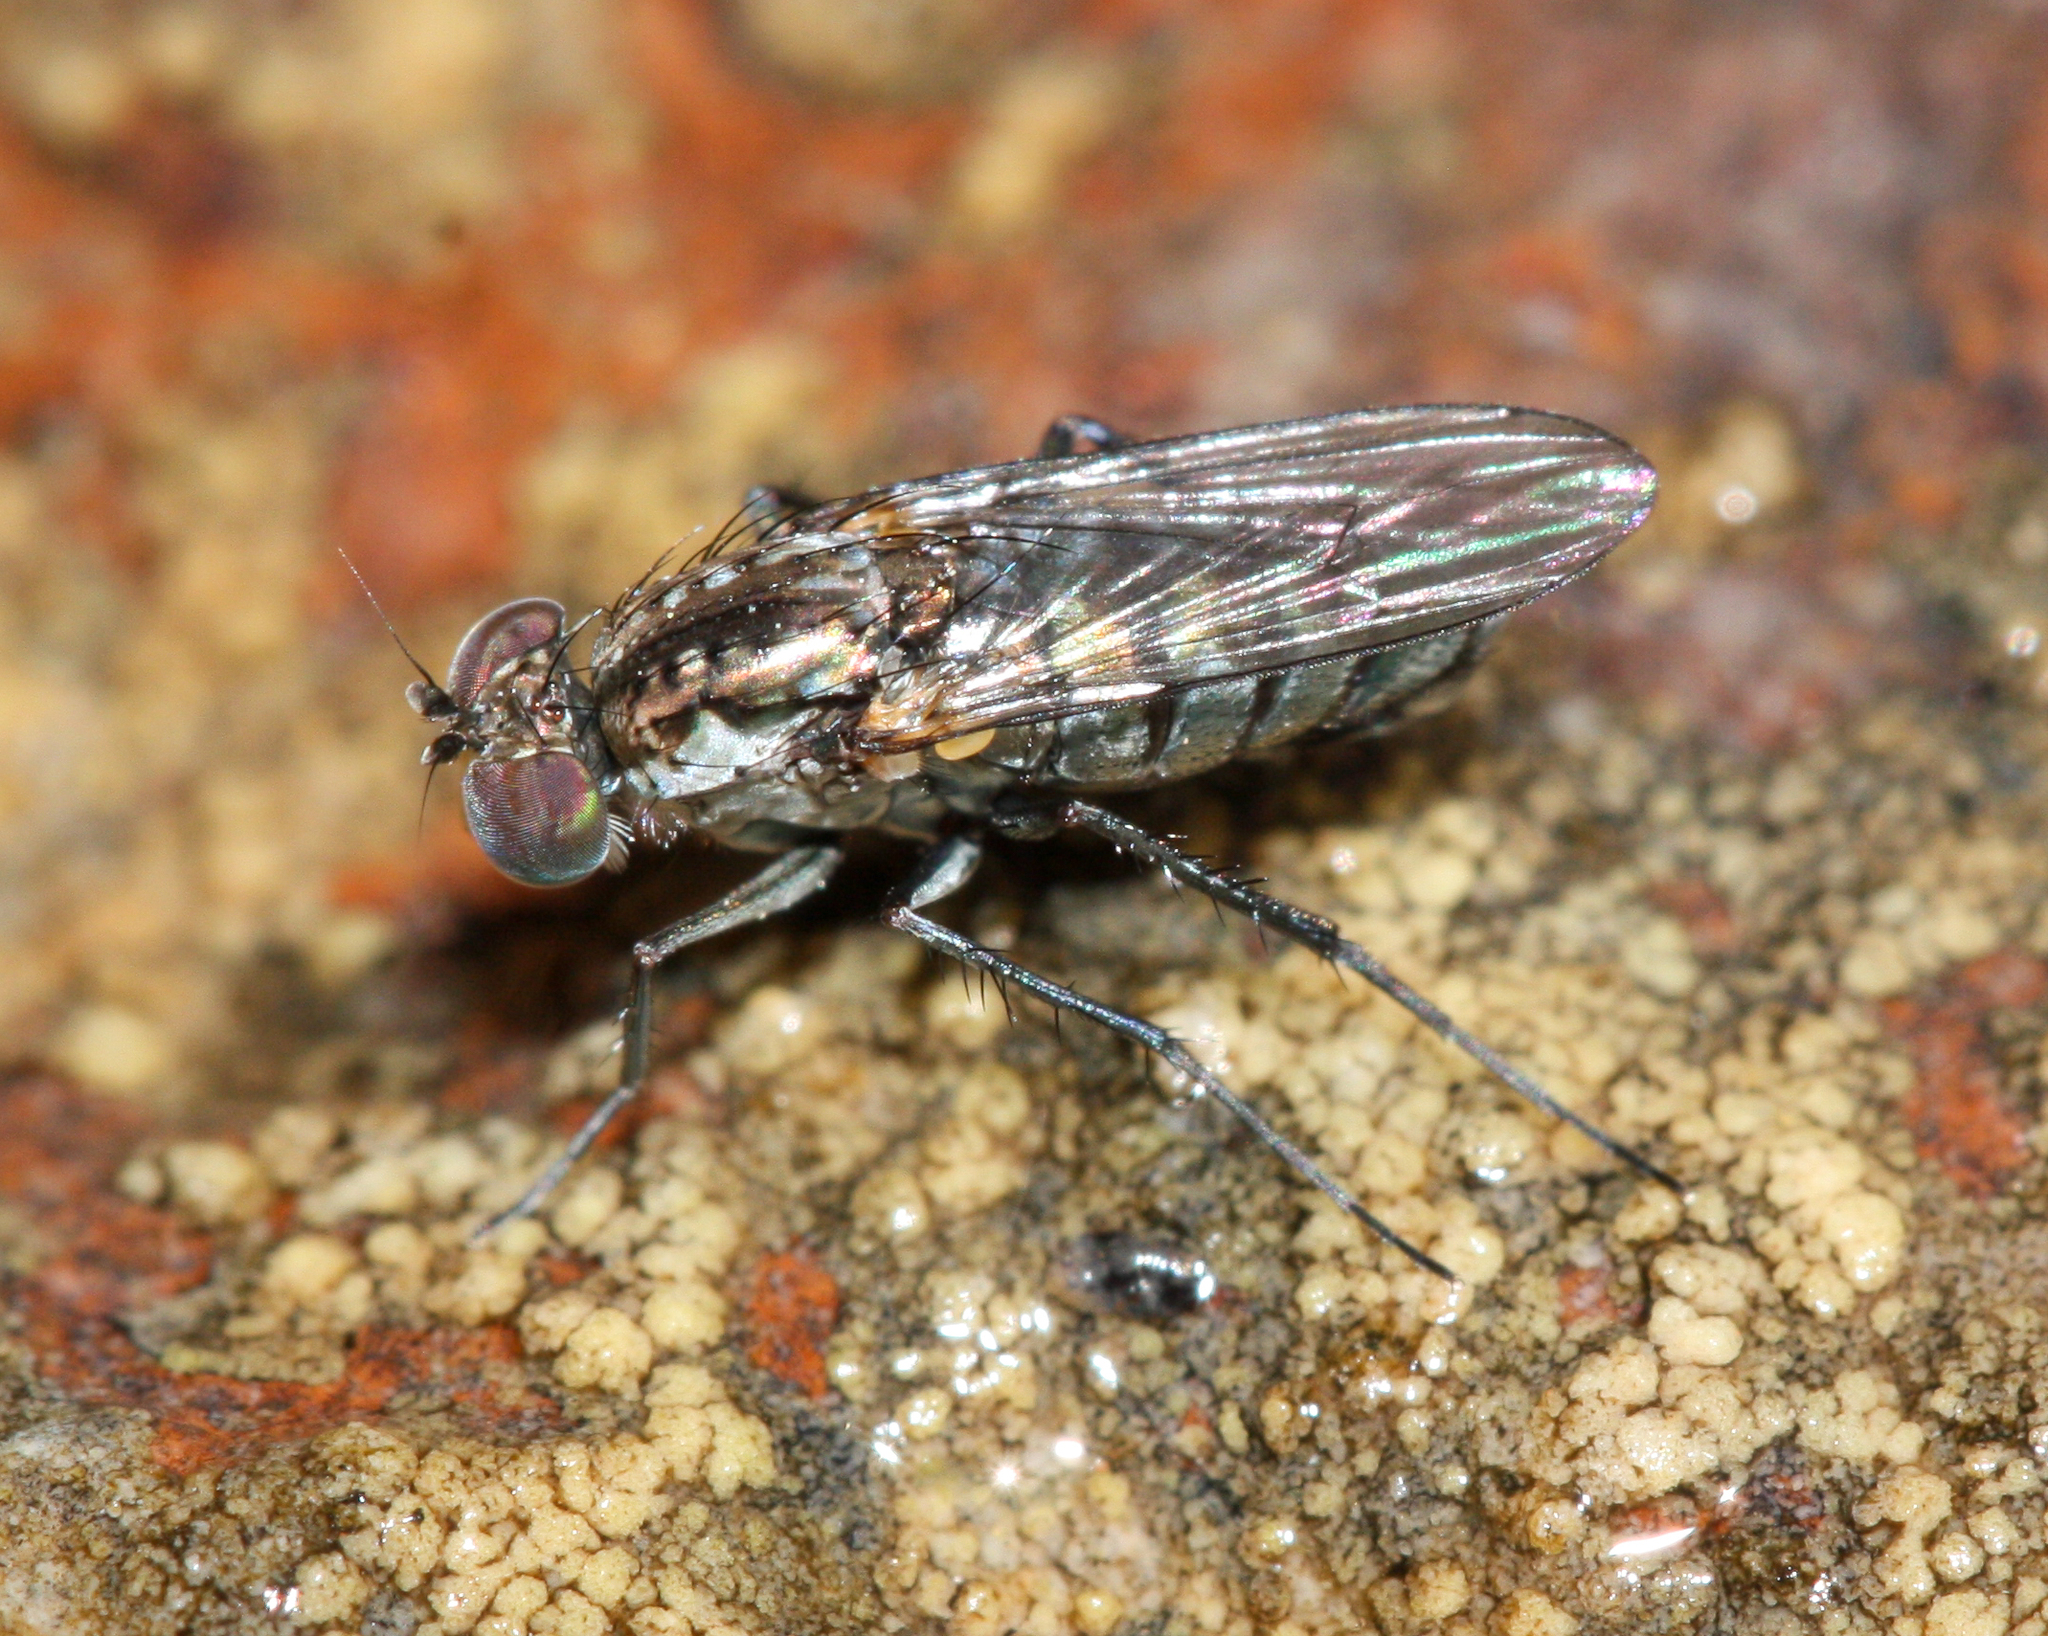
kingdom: Animalia
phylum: Arthropoda
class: Insecta
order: Diptera
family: Dolichopodidae
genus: Tachytrechus
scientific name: Tachytrechus angustipennis
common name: Long-legged fly
